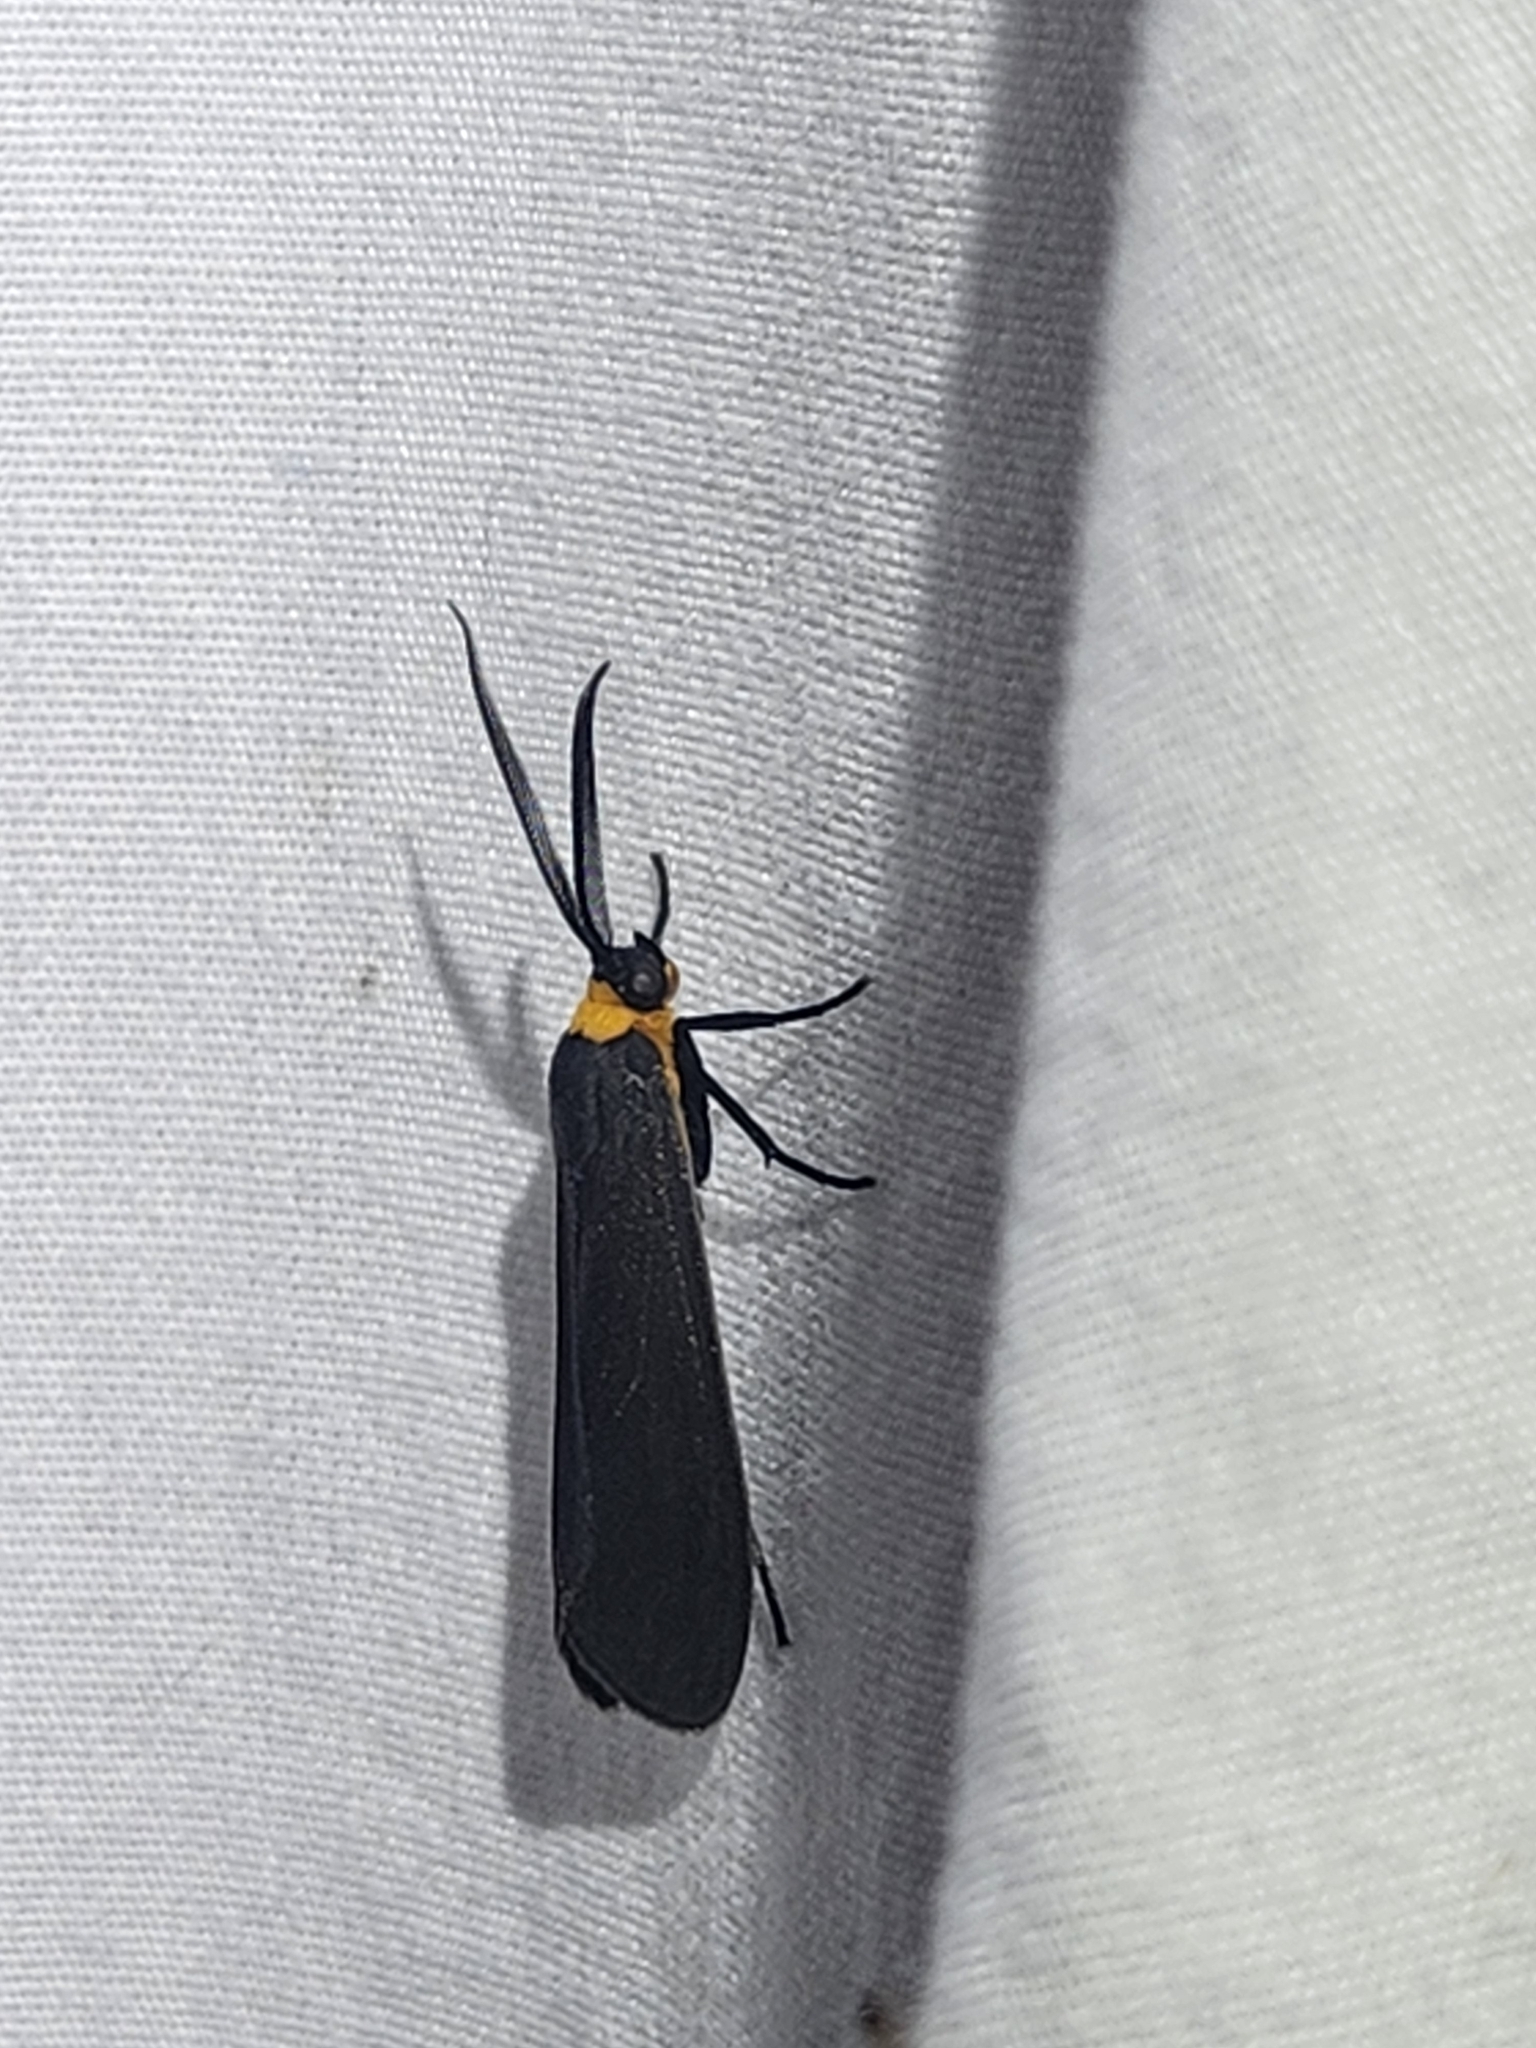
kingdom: Animalia
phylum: Arthropoda
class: Insecta
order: Lepidoptera
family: Erebidae
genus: Cisseps
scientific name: Cisseps fulvicollis
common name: Yellow-collared scape moth
